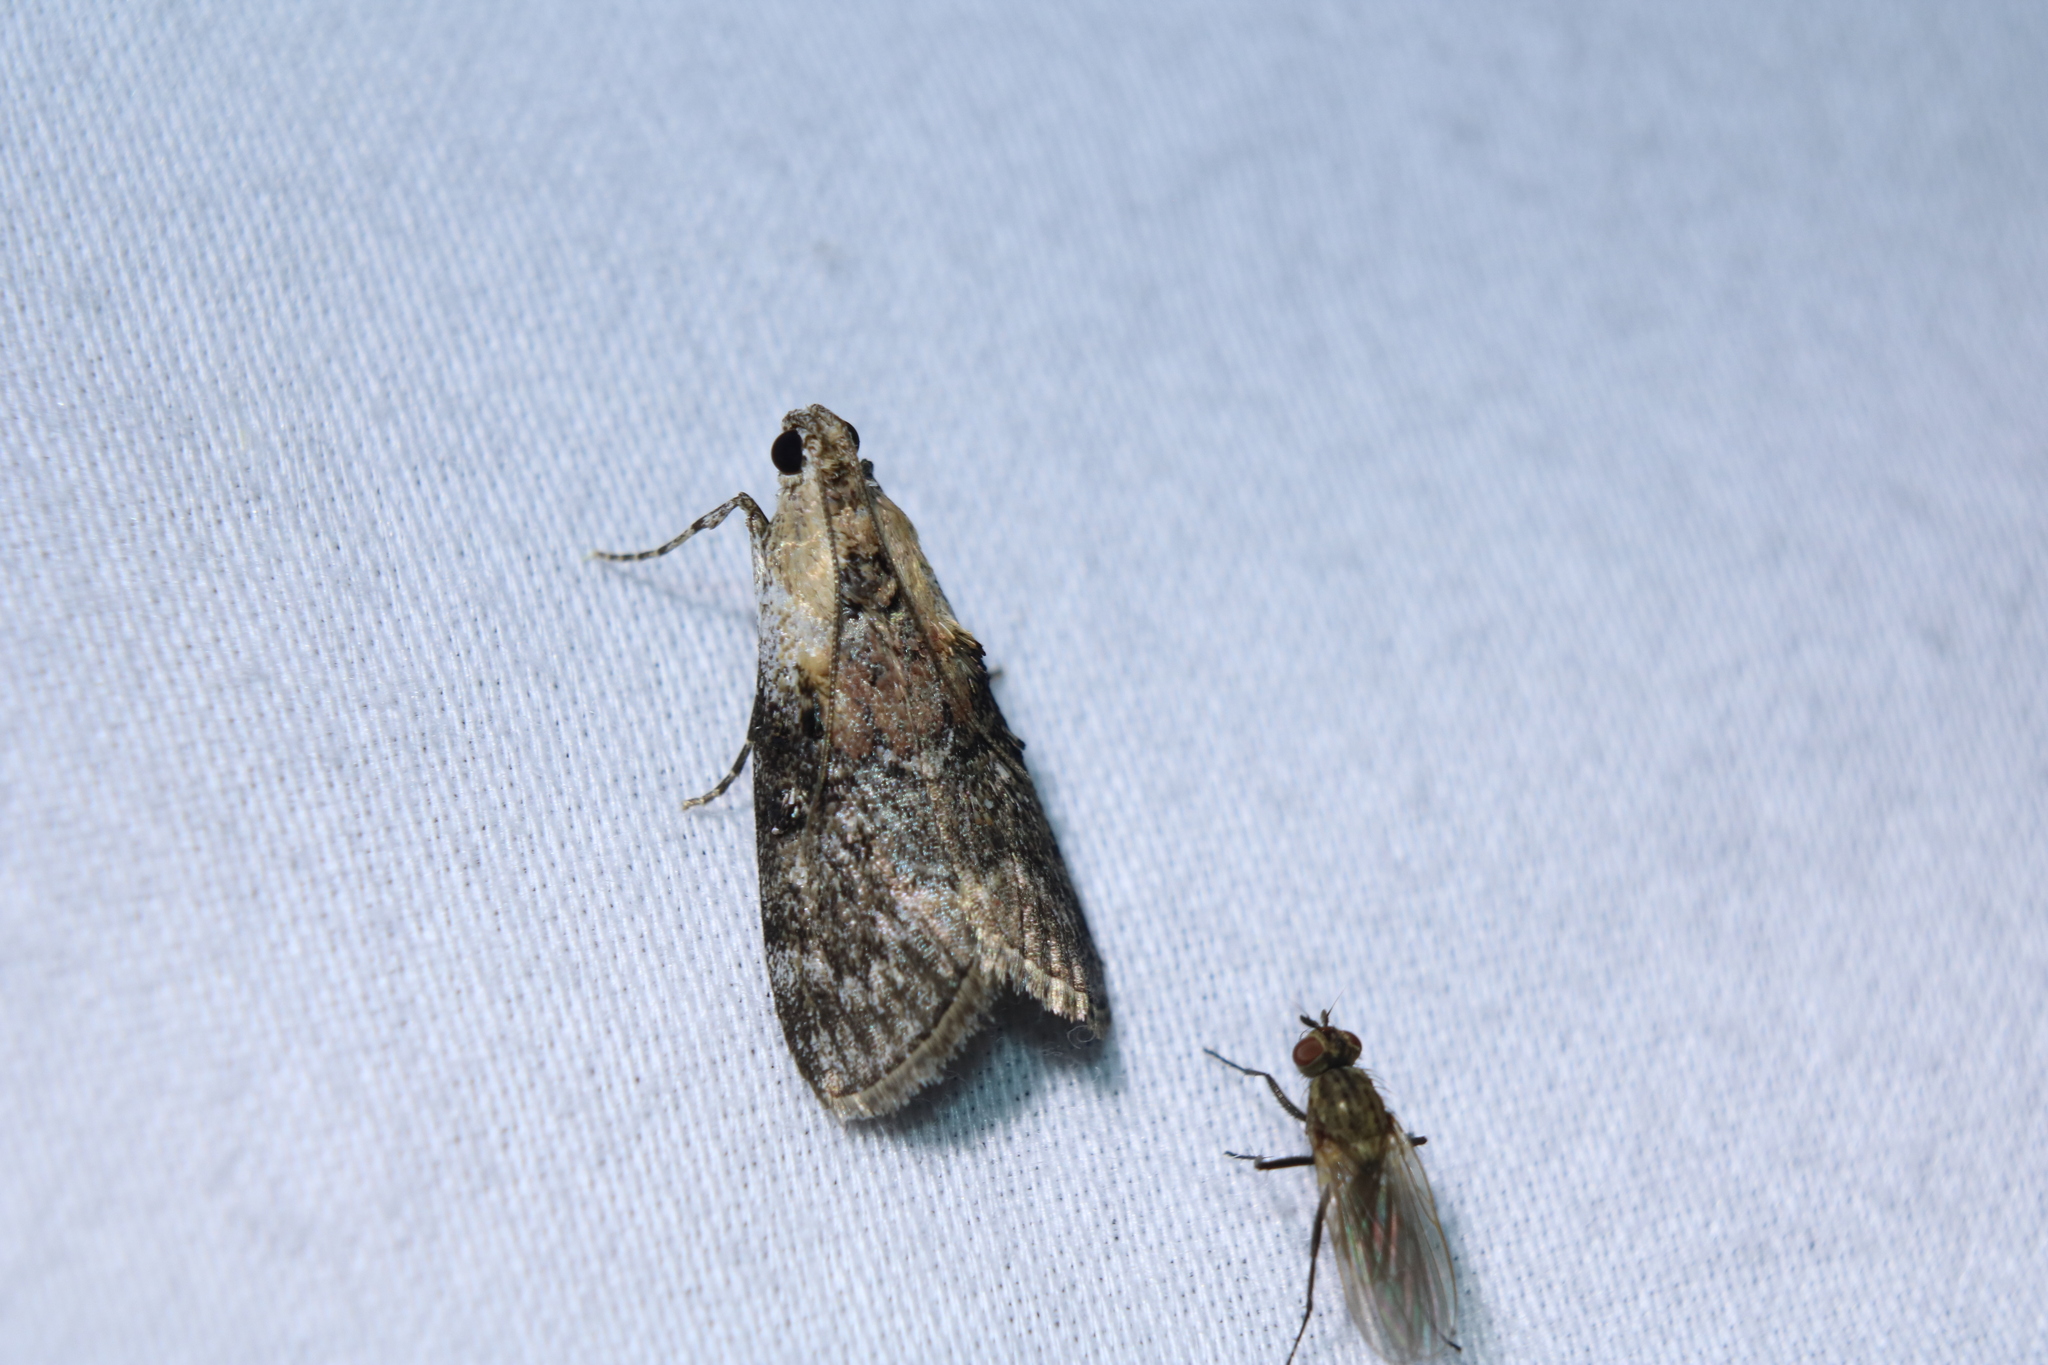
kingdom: Animalia
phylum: Arthropoda
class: Insecta
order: Lepidoptera
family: Pyralidae
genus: Pococera
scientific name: Pococera expandens
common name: Striped oak webworm moth
